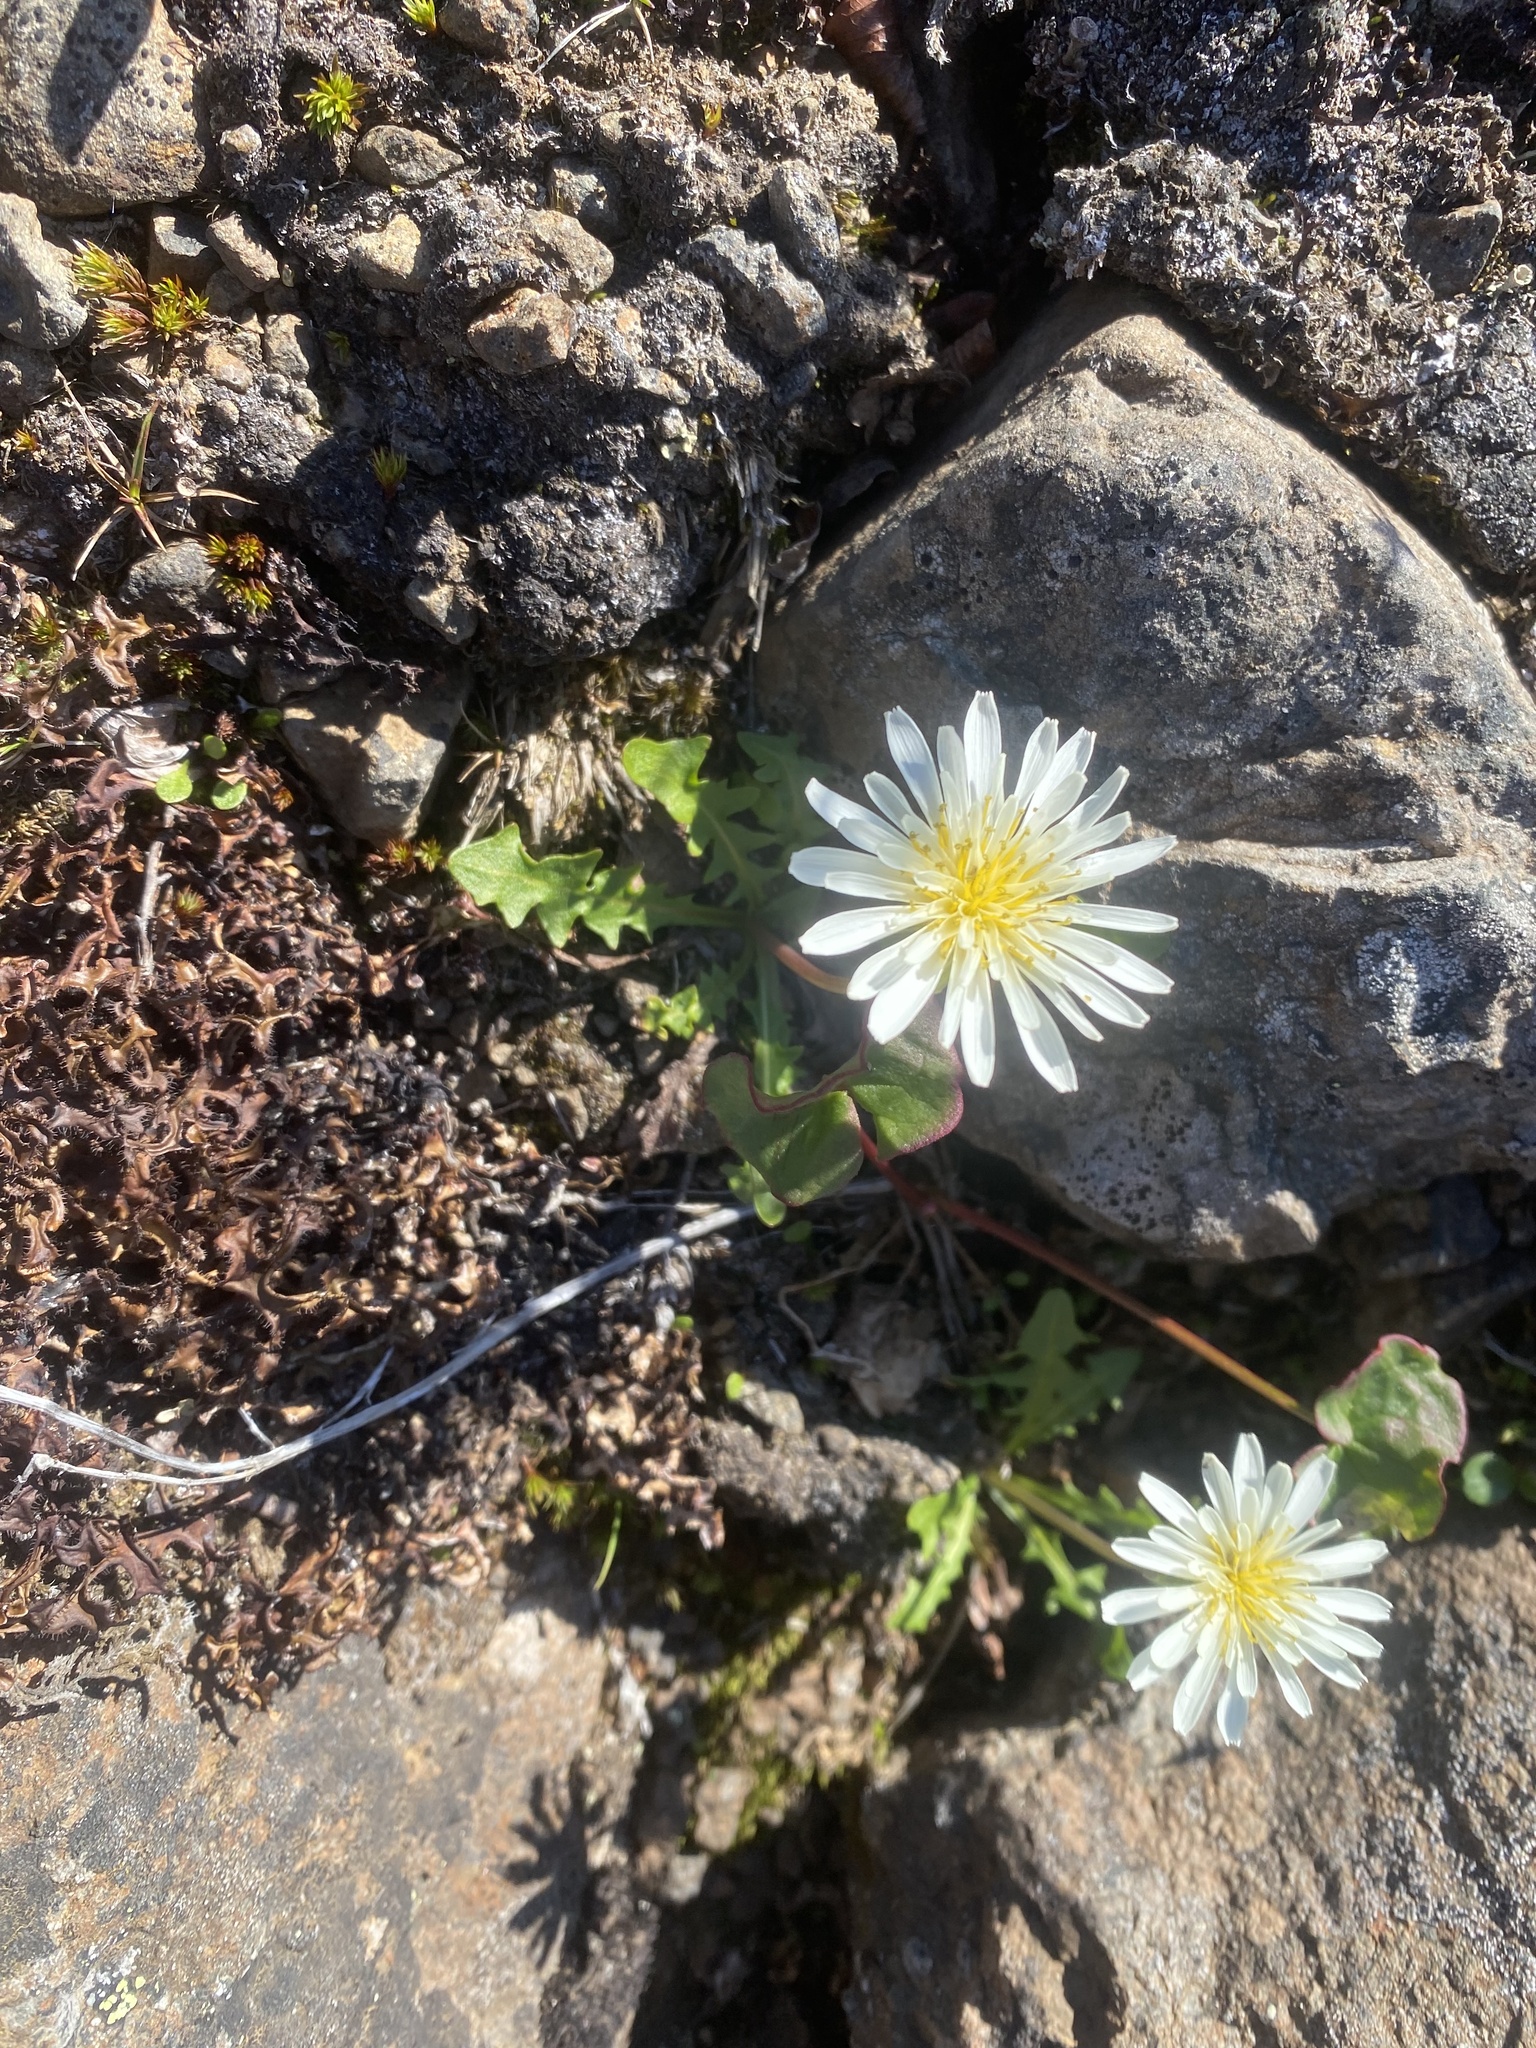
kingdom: Plantae
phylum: Tracheophyta
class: Magnoliopsida
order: Asterales
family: Asteraceae
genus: Taraxacum
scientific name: Taraxacum arcticum
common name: Arctic dandelion
